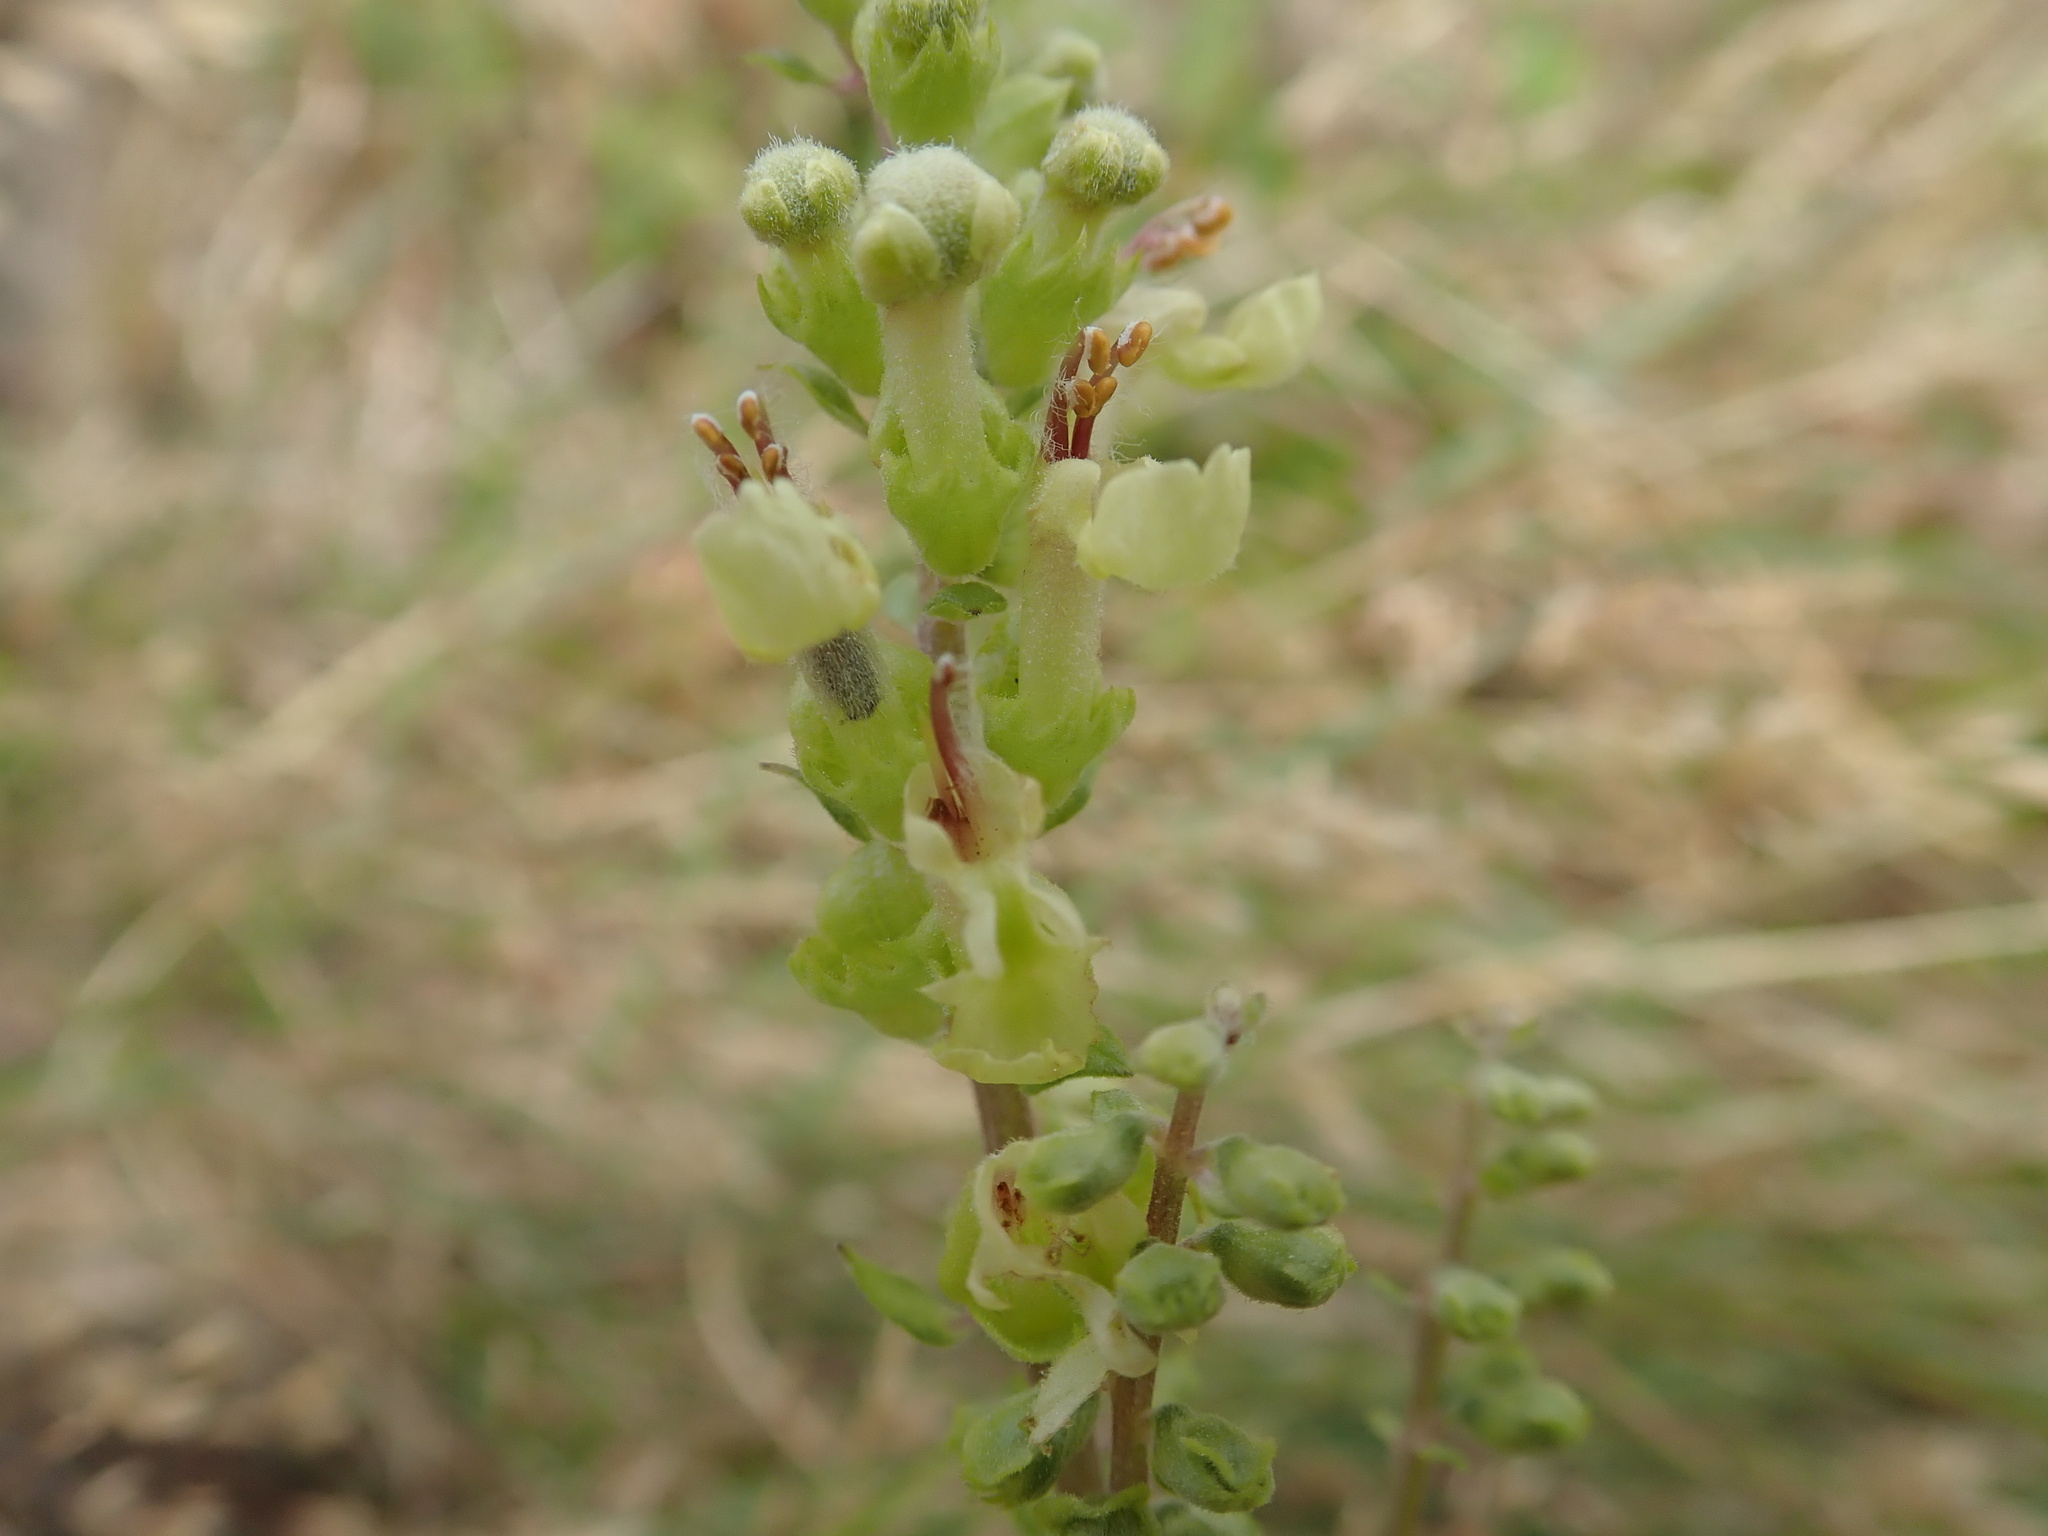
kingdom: Plantae
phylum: Tracheophyta
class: Magnoliopsida
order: Lamiales
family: Lamiaceae
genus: Teucrium
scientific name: Teucrium scorodonia
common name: Woodland germander
